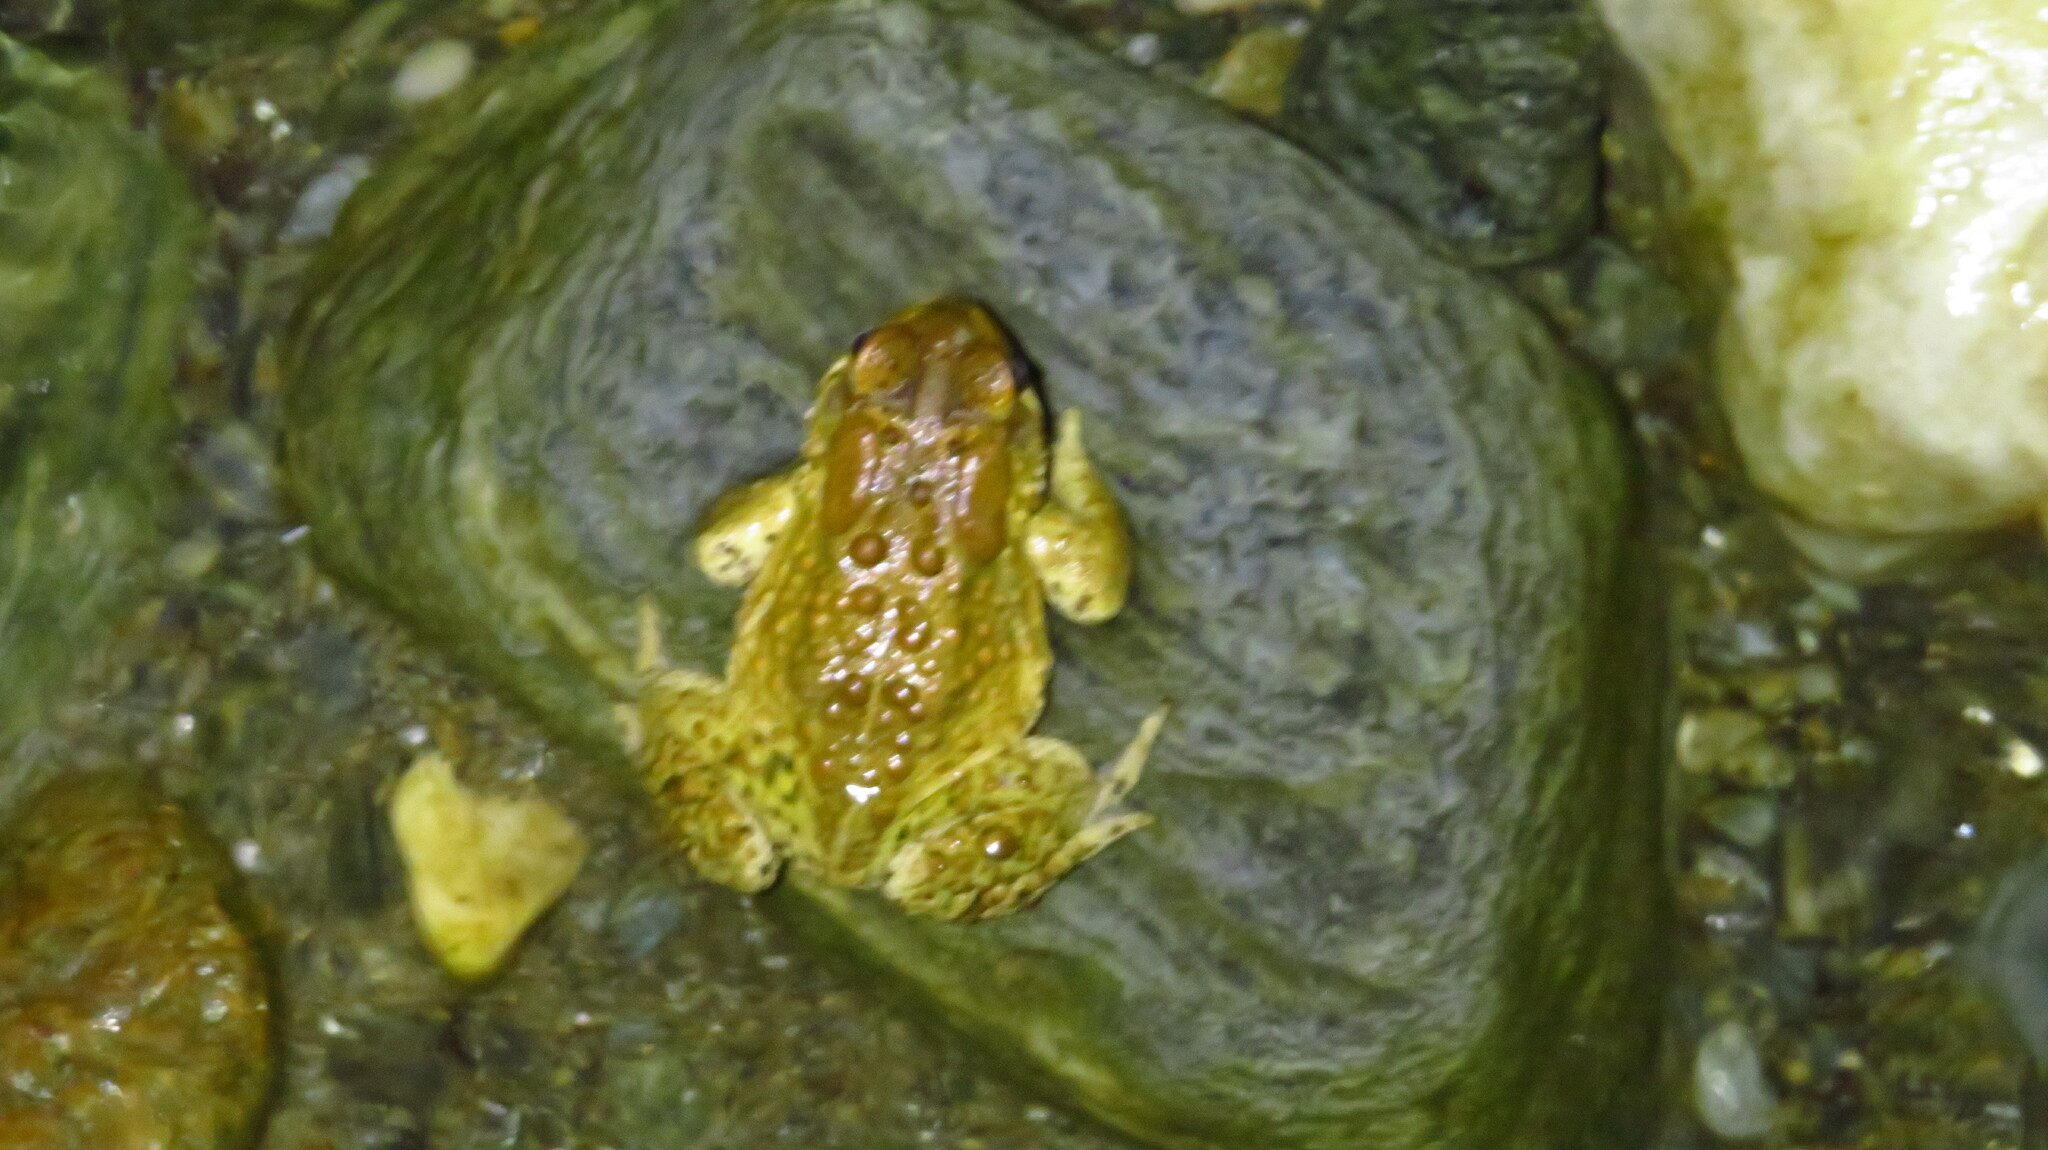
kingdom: Animalia
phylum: Chordata
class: Amphibia
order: Anura
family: Bufonidae
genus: Anaxyrus
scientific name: Anaxyrus americanus
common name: American toad
